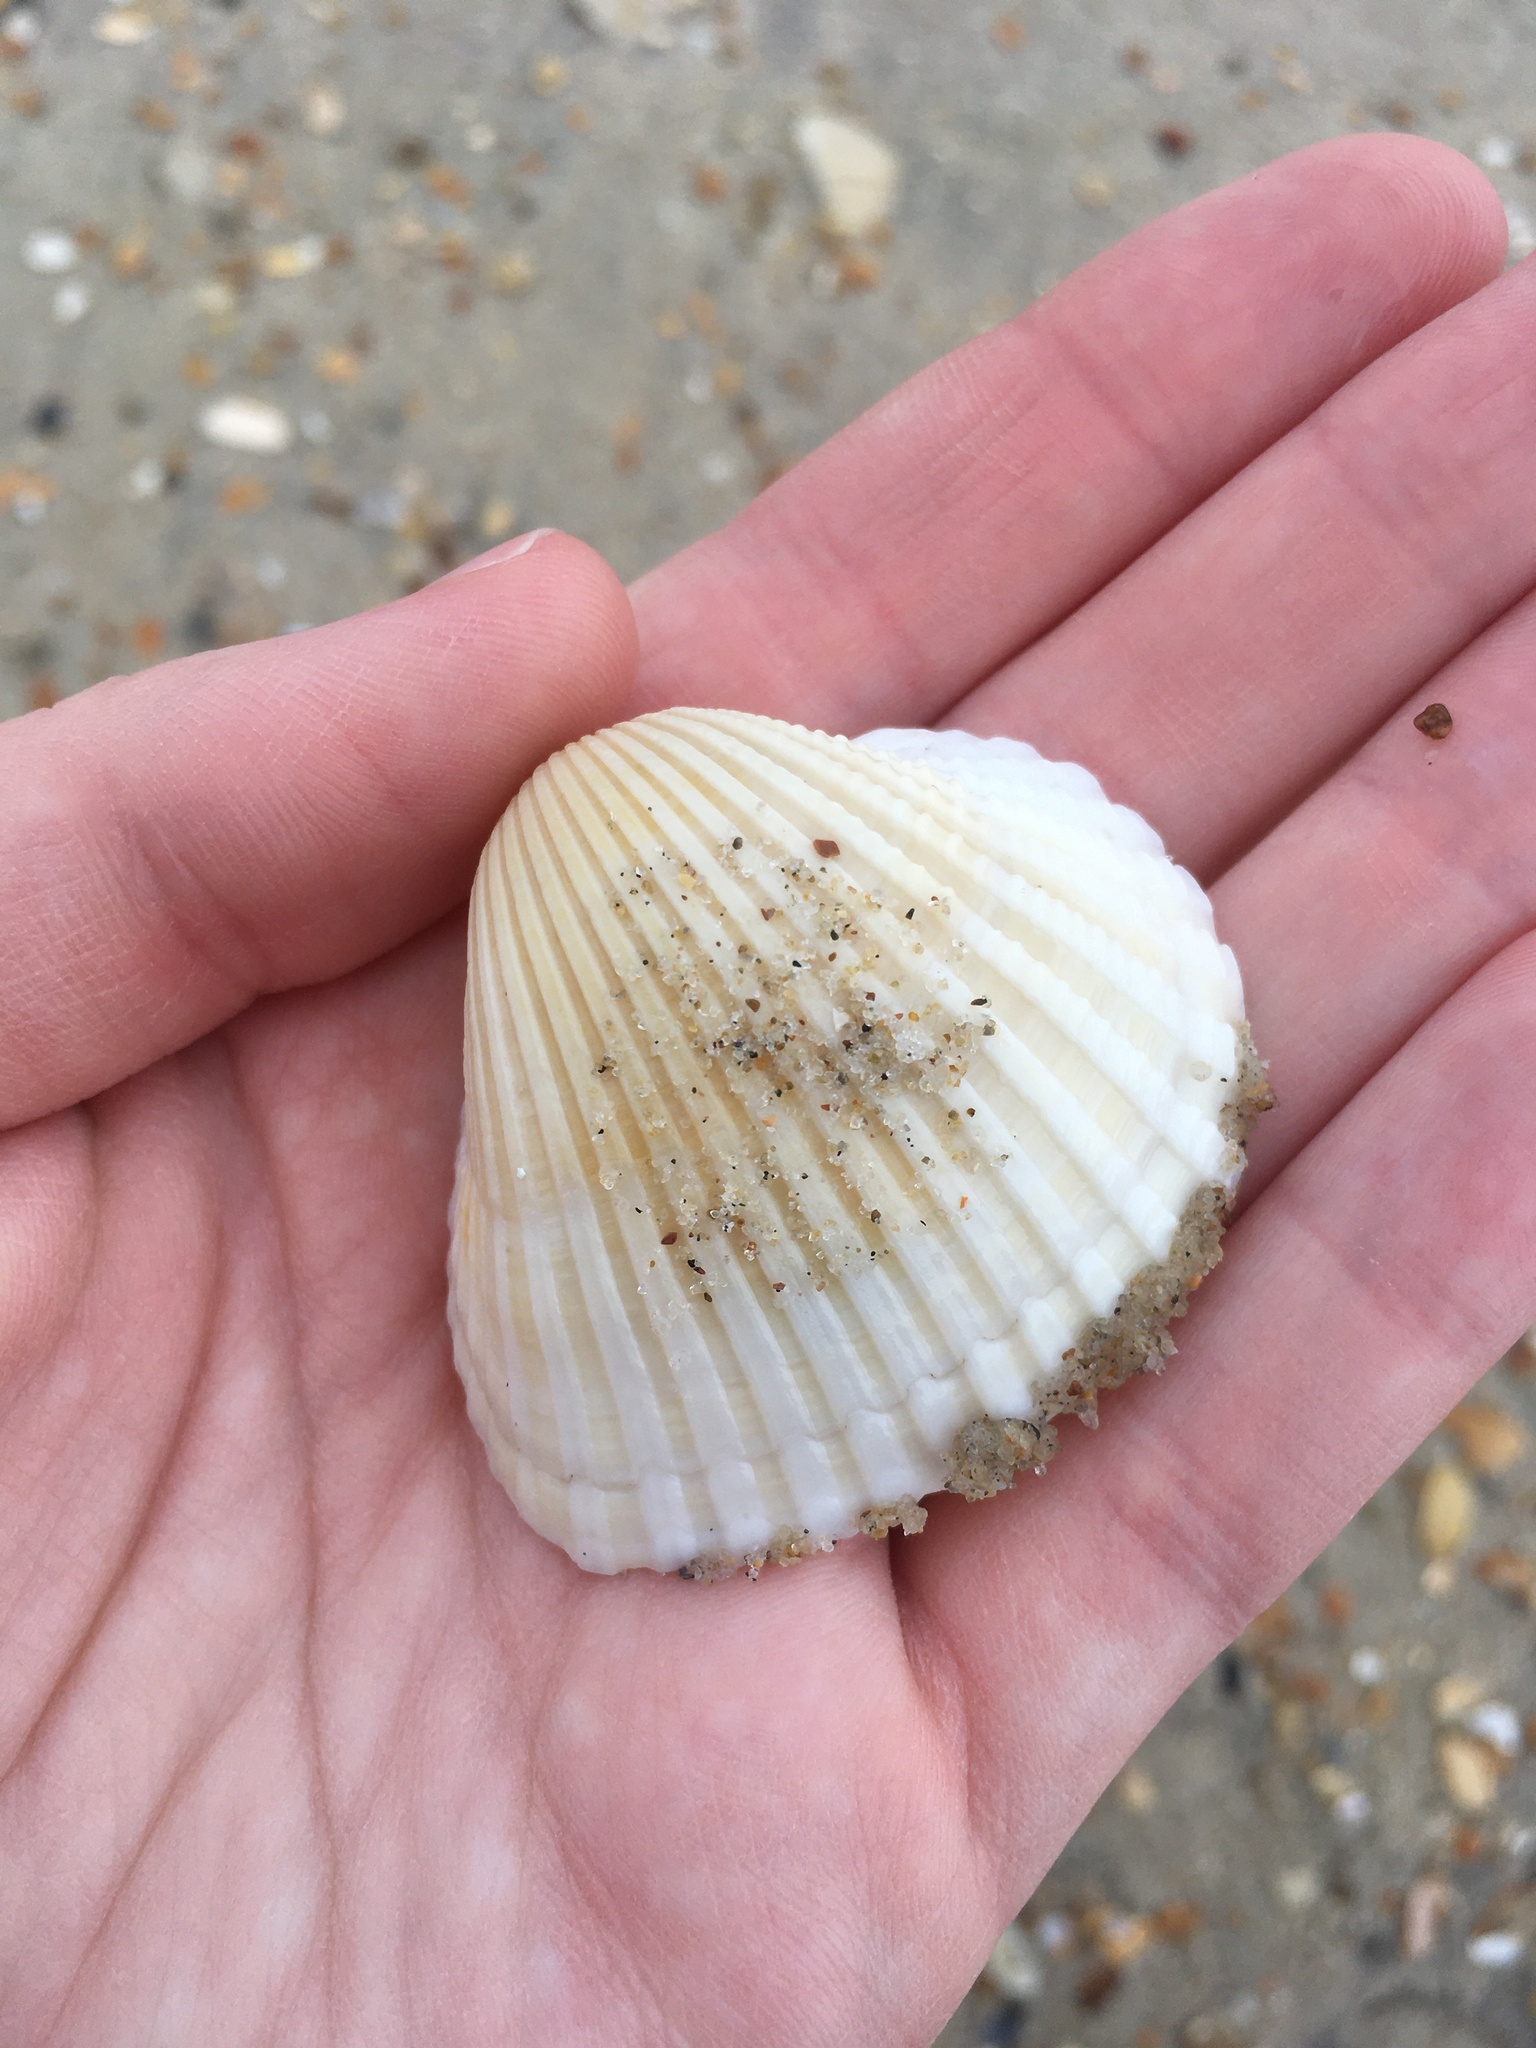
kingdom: Animalia
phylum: Mollusca
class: Bivalvia
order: Arcida
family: Arcidae
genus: Anadara
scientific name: Anadara brasiliana
